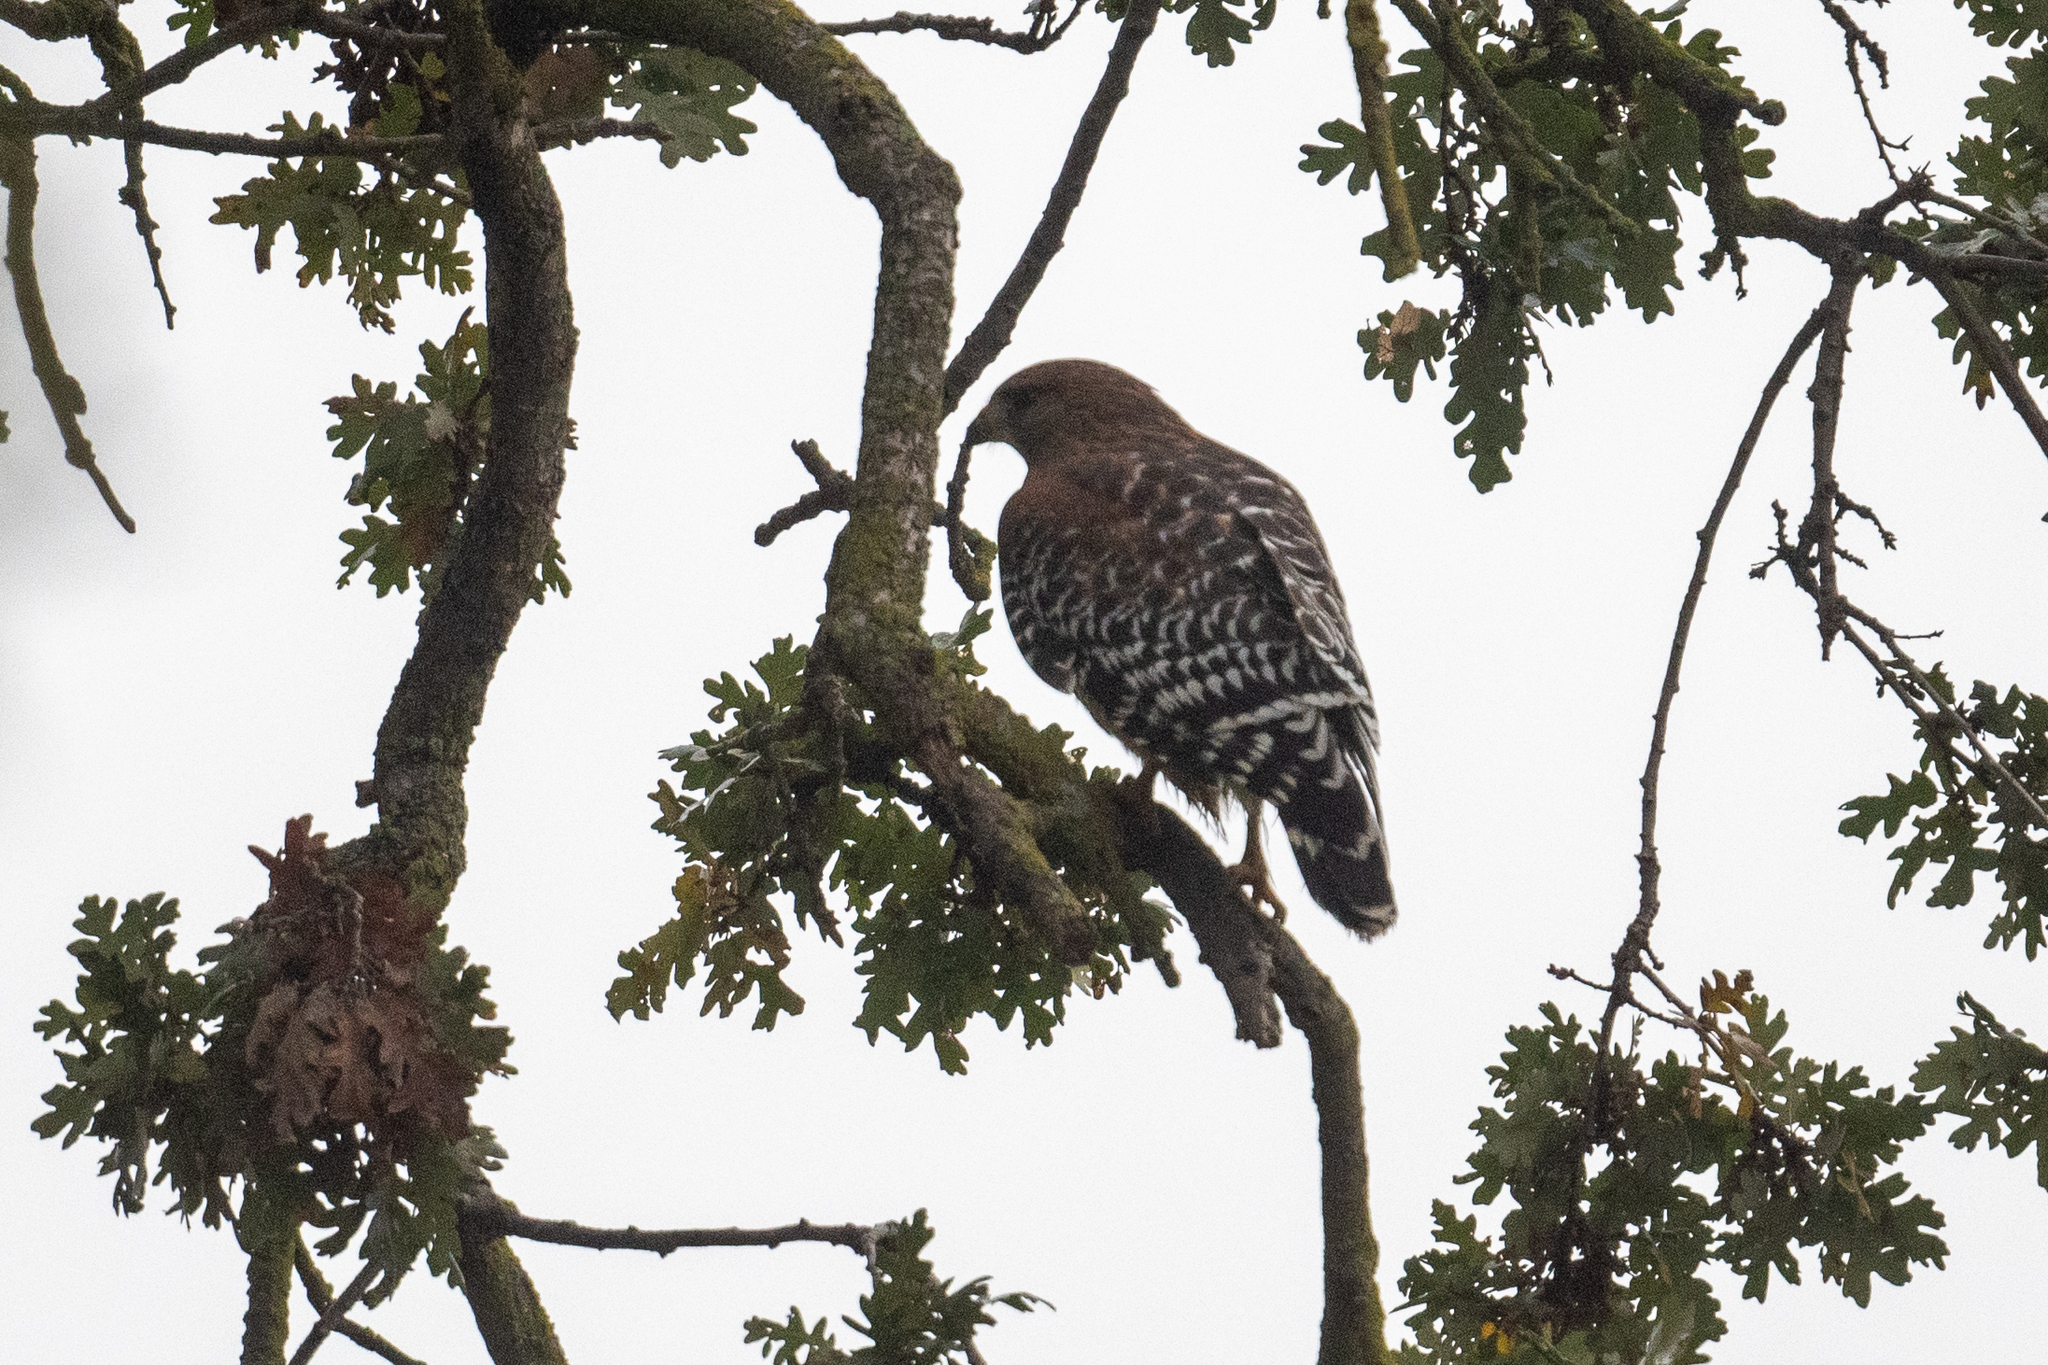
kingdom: Animalia
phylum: Chordata
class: Aves
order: Accipitriformes
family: Accipitridae
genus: Buteo
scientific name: Buteo lineatus
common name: Red-shouldered hawk
